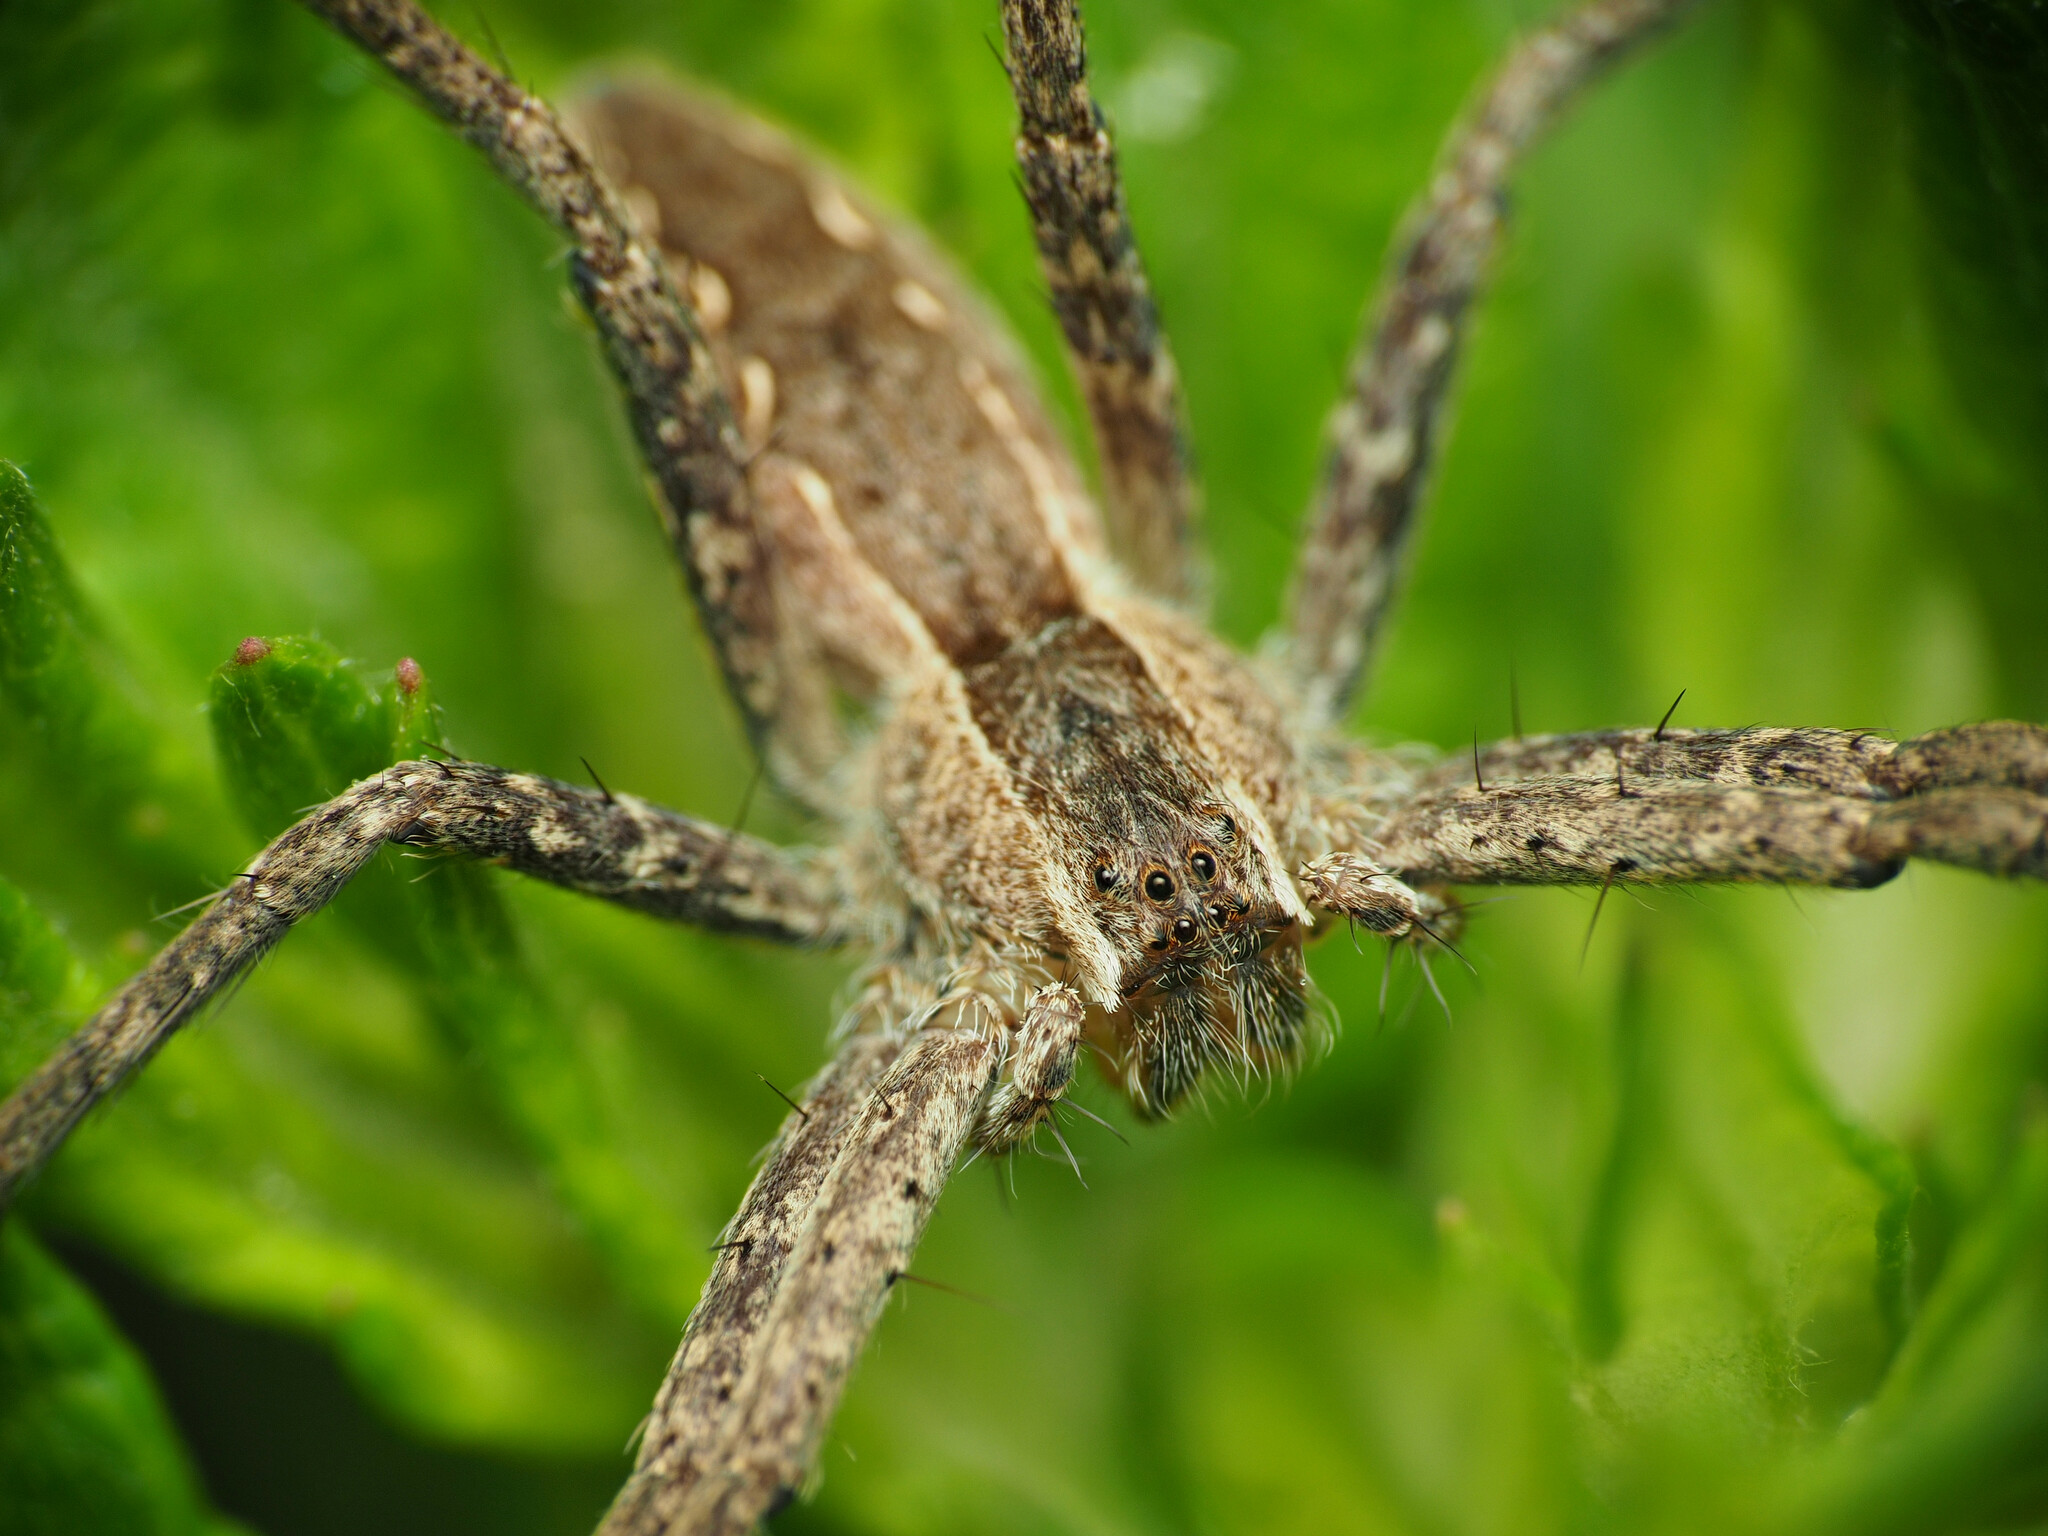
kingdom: Animalia
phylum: Arthropoda
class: Arachnida
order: Araneae
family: Pisauridae
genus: Pisaurina
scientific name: Pisaurina mira
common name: American nursery web spider
